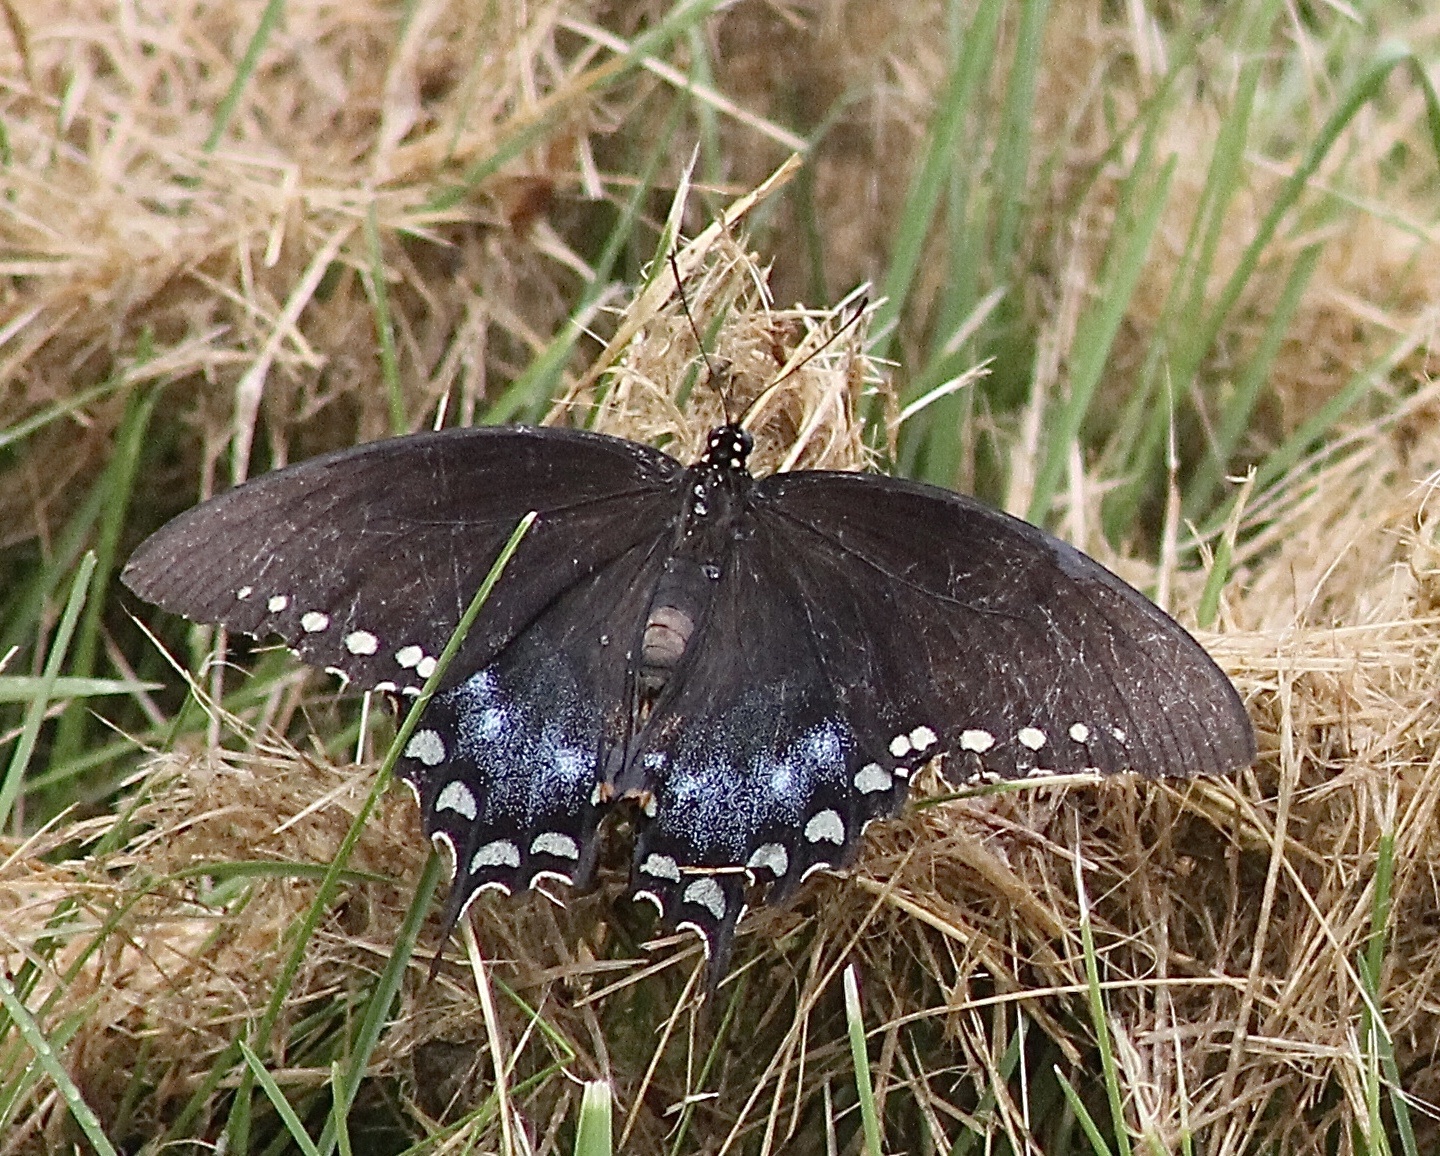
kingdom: Animalia
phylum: Arthropoda
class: Insecta
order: Lepidoptera
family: Papilionidae
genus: Papilio
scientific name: Papilio troilus
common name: Spicebush swallowtail
